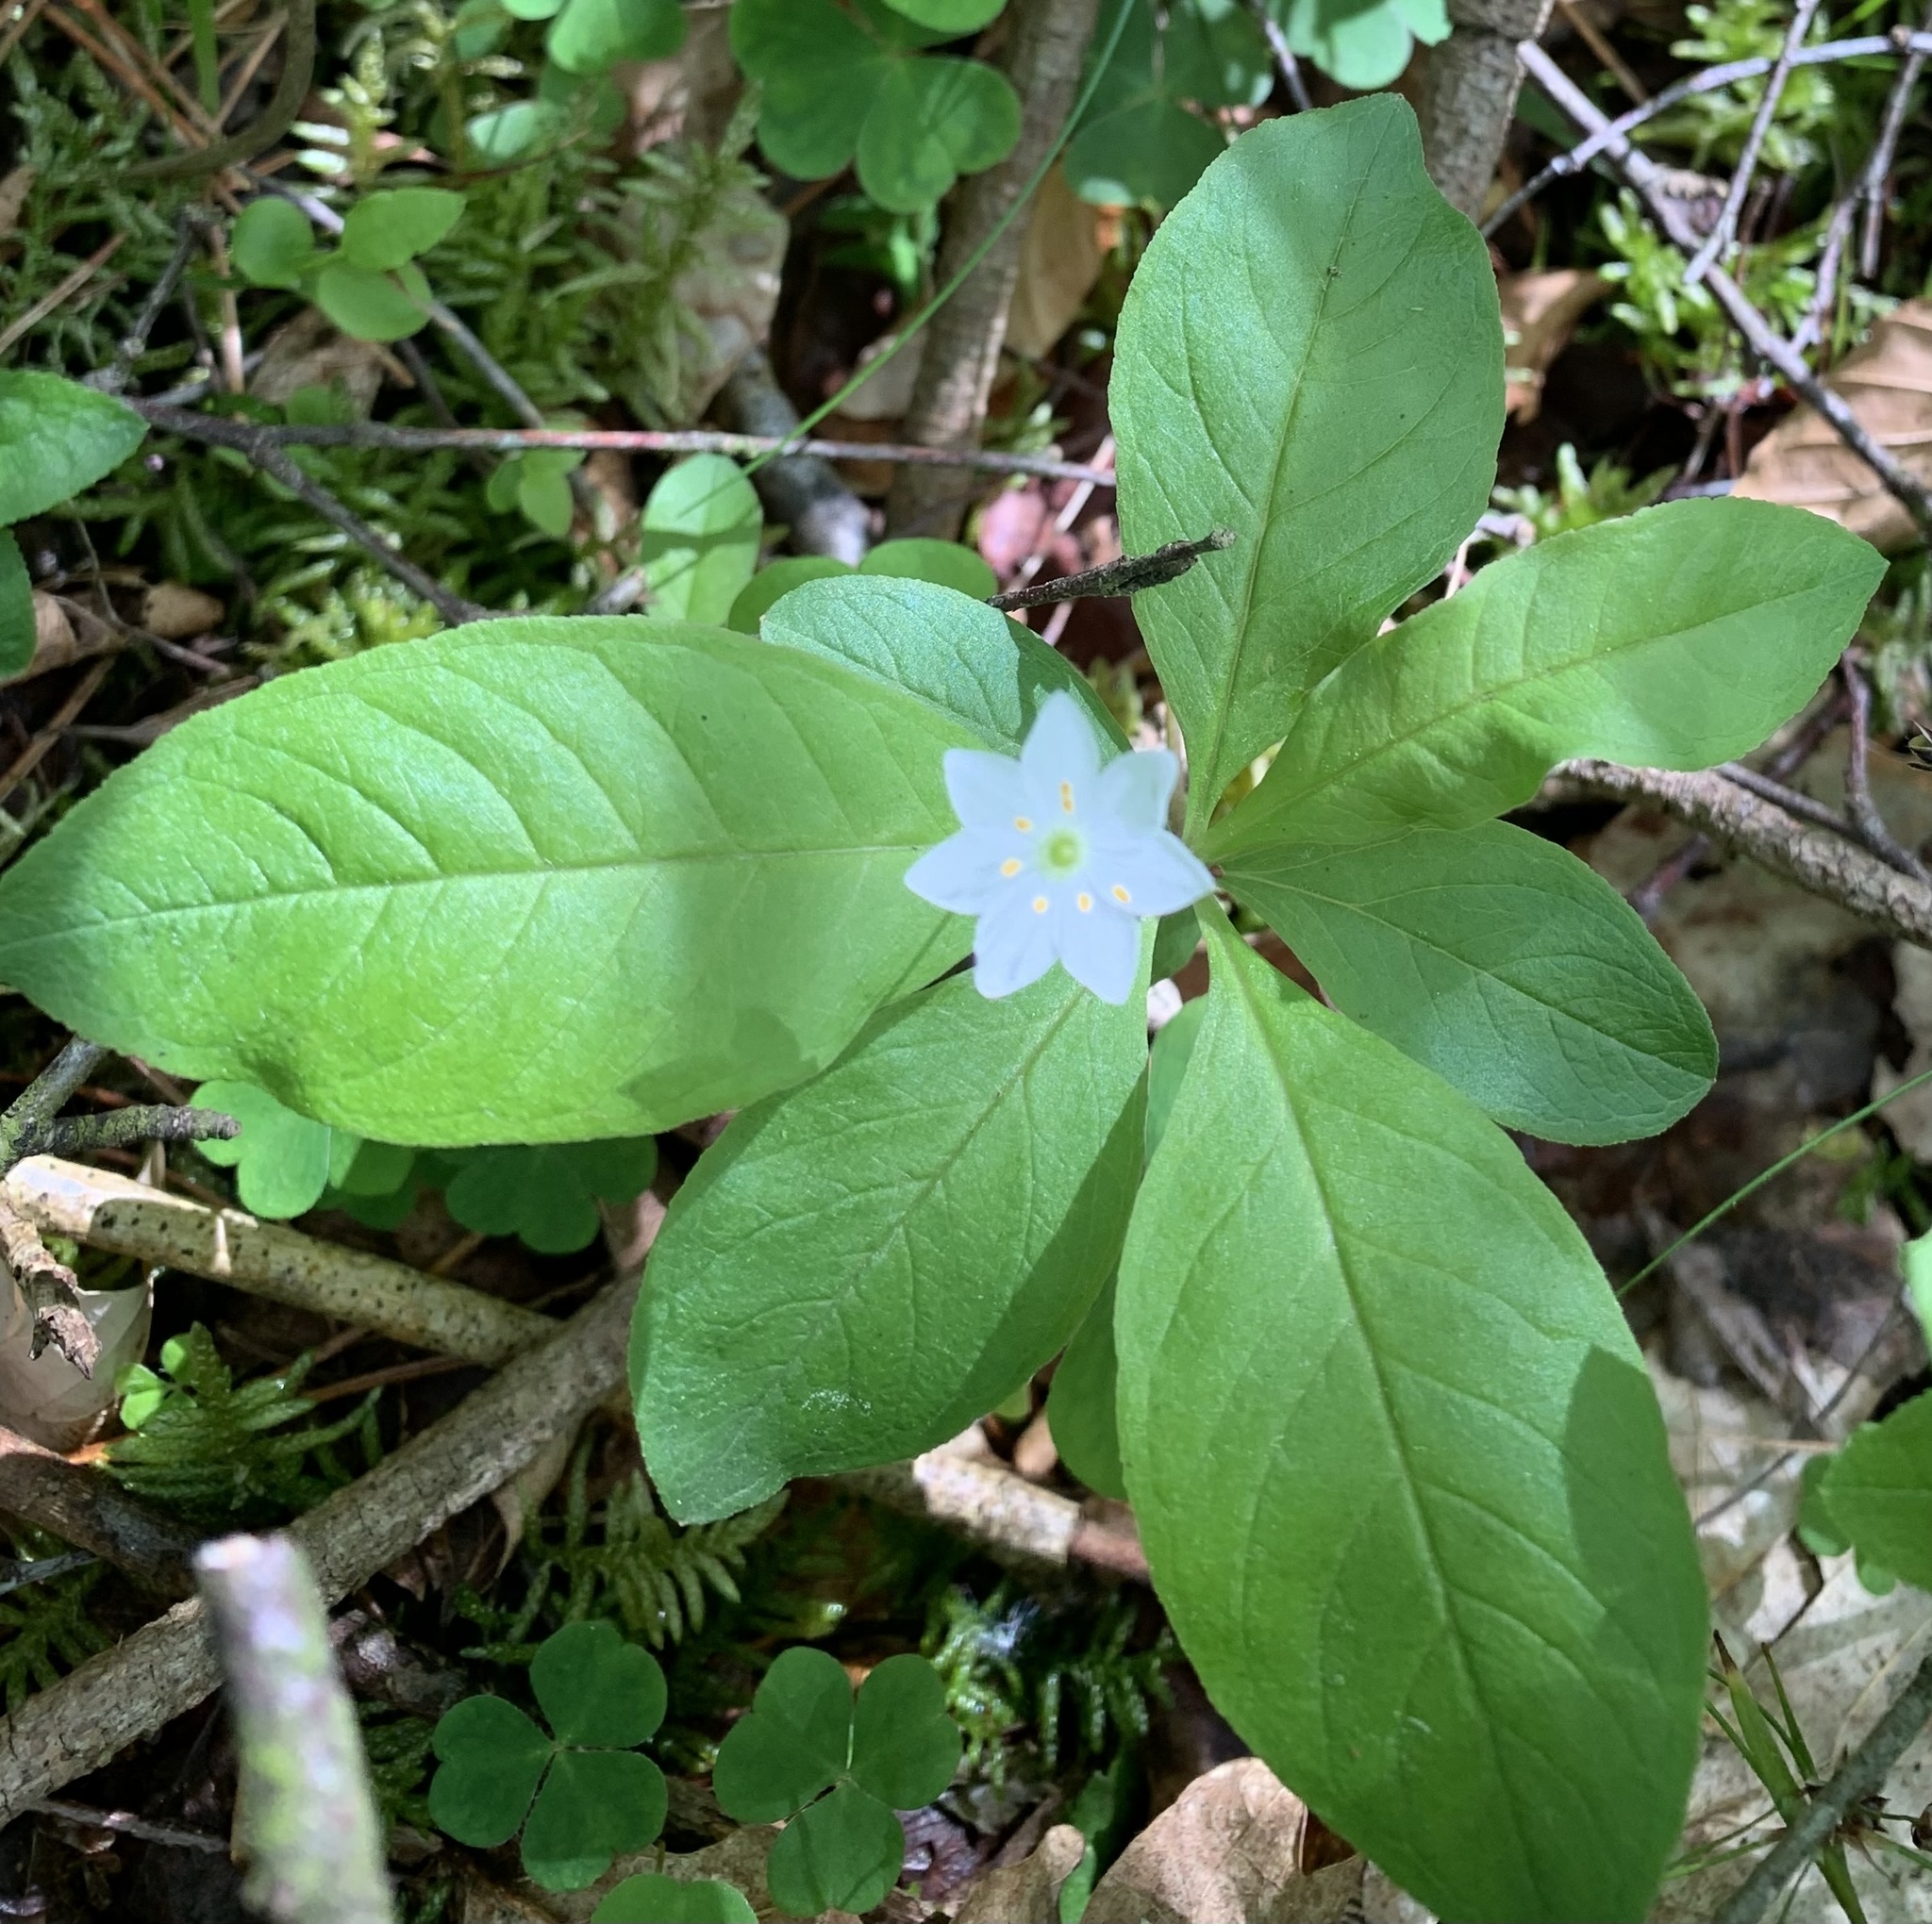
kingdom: Plantae
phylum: Tracheophyta
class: Magnoliopsida
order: Ericales
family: Primulaceae
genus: Lysimachia
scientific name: Lysimachia europaea
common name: Arctic starflower
